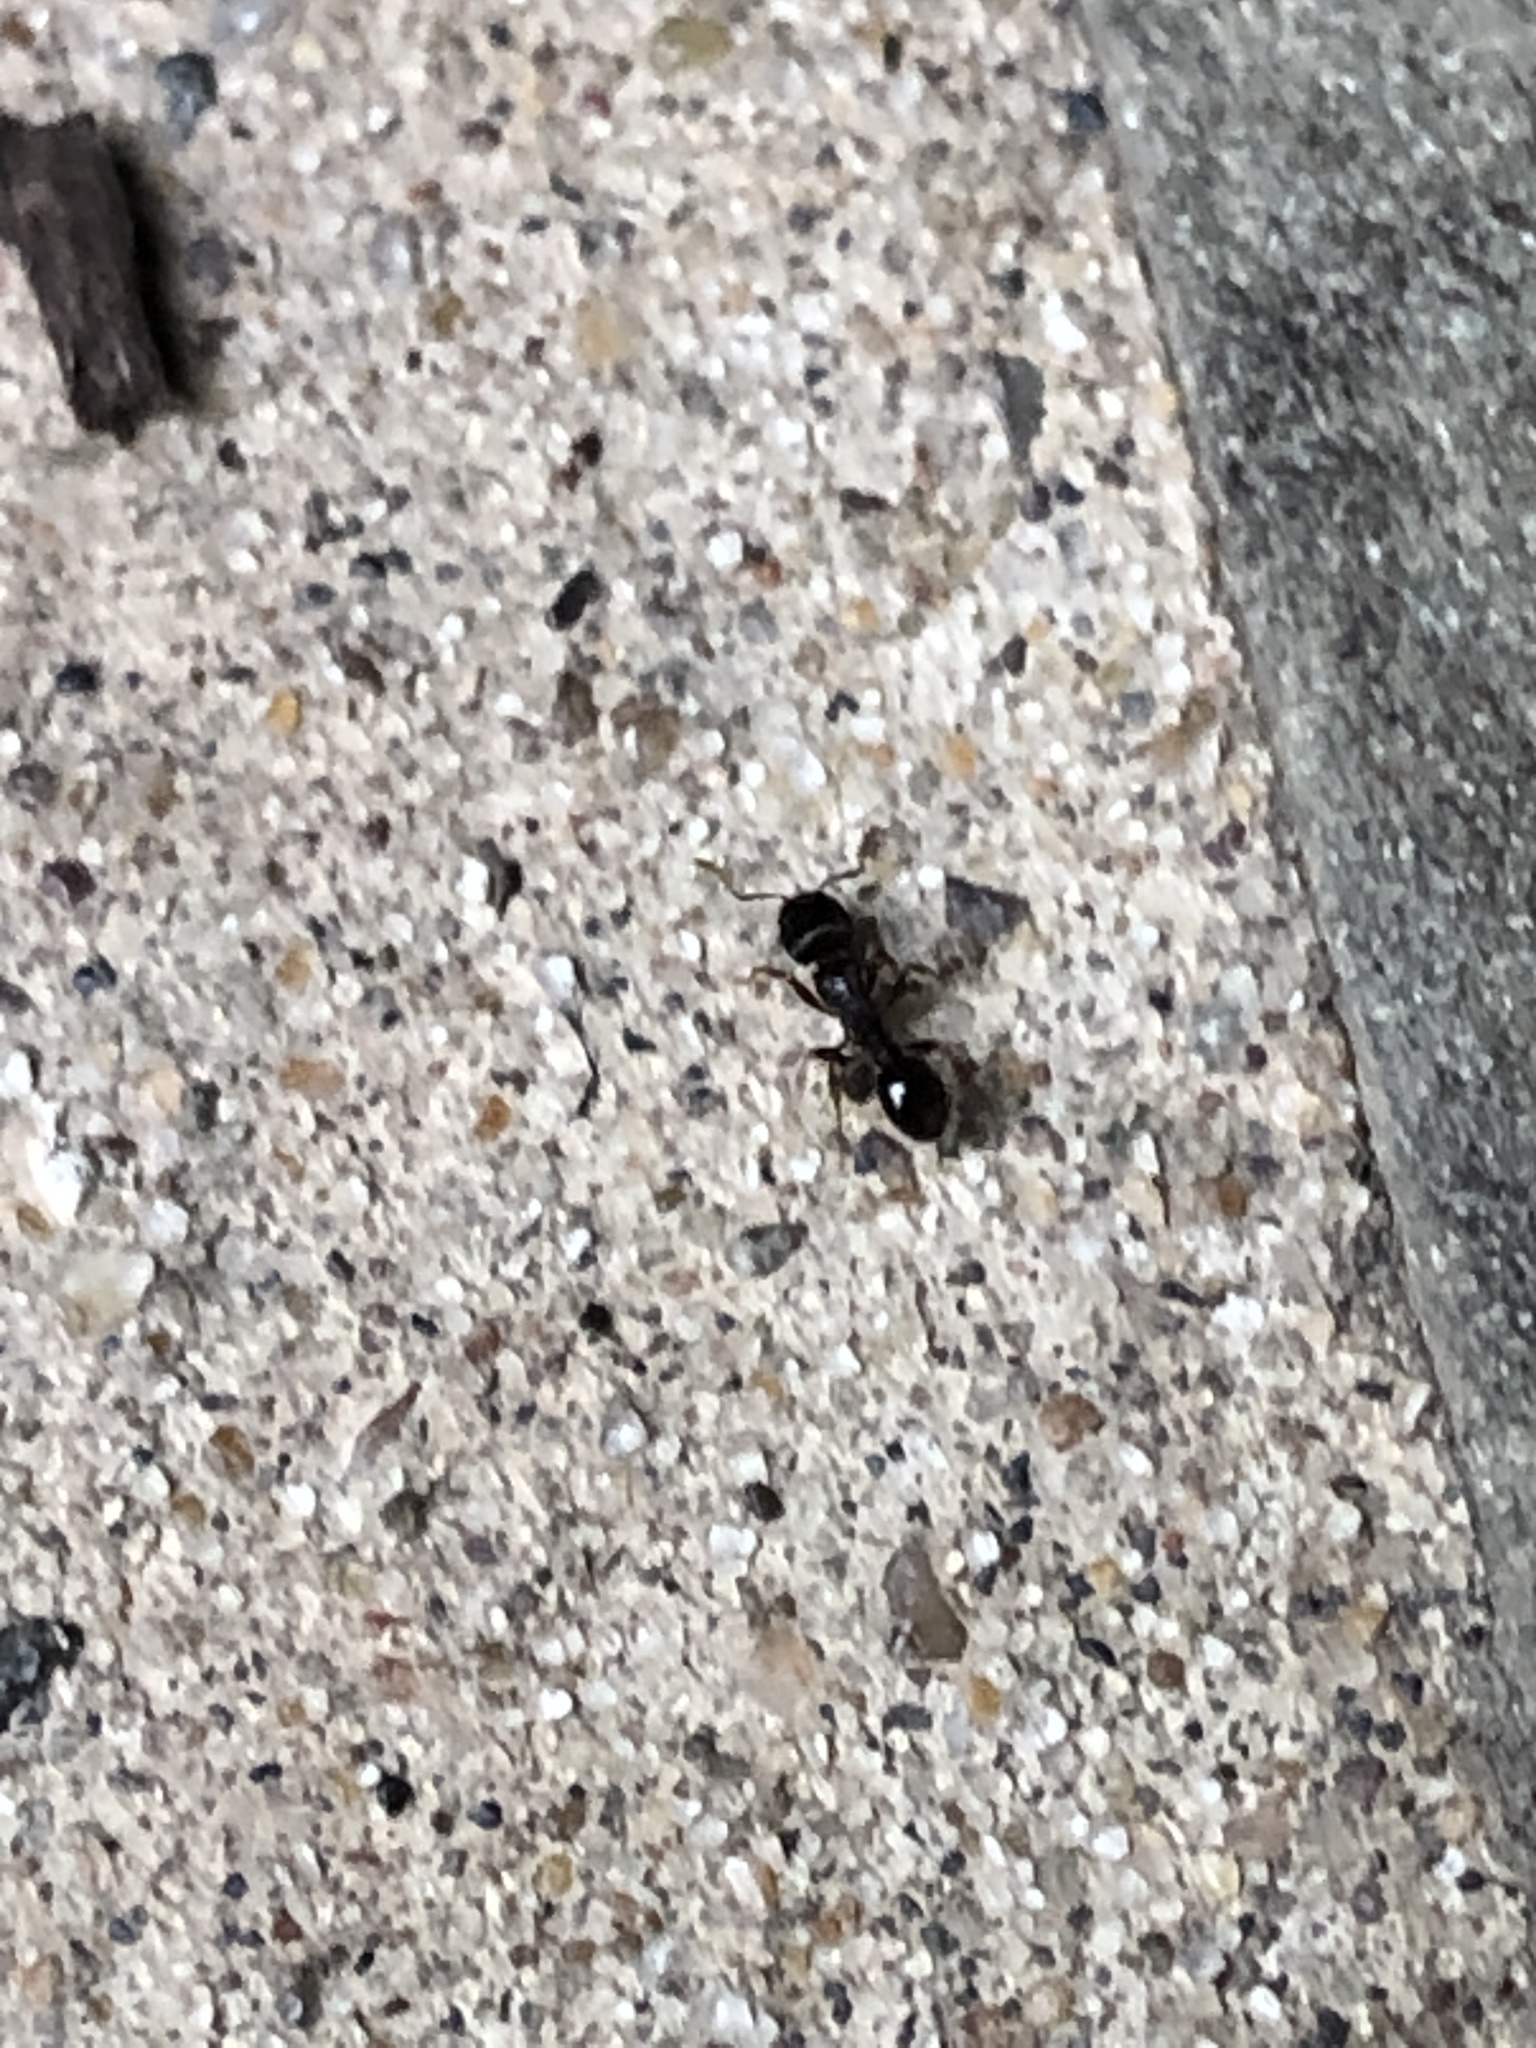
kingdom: Animalia
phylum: Arthropoda
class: Insecta
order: Hymenoptera
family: Formicidae
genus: Tetramorium
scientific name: Tetramorium immigrans
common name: Pavement ant
